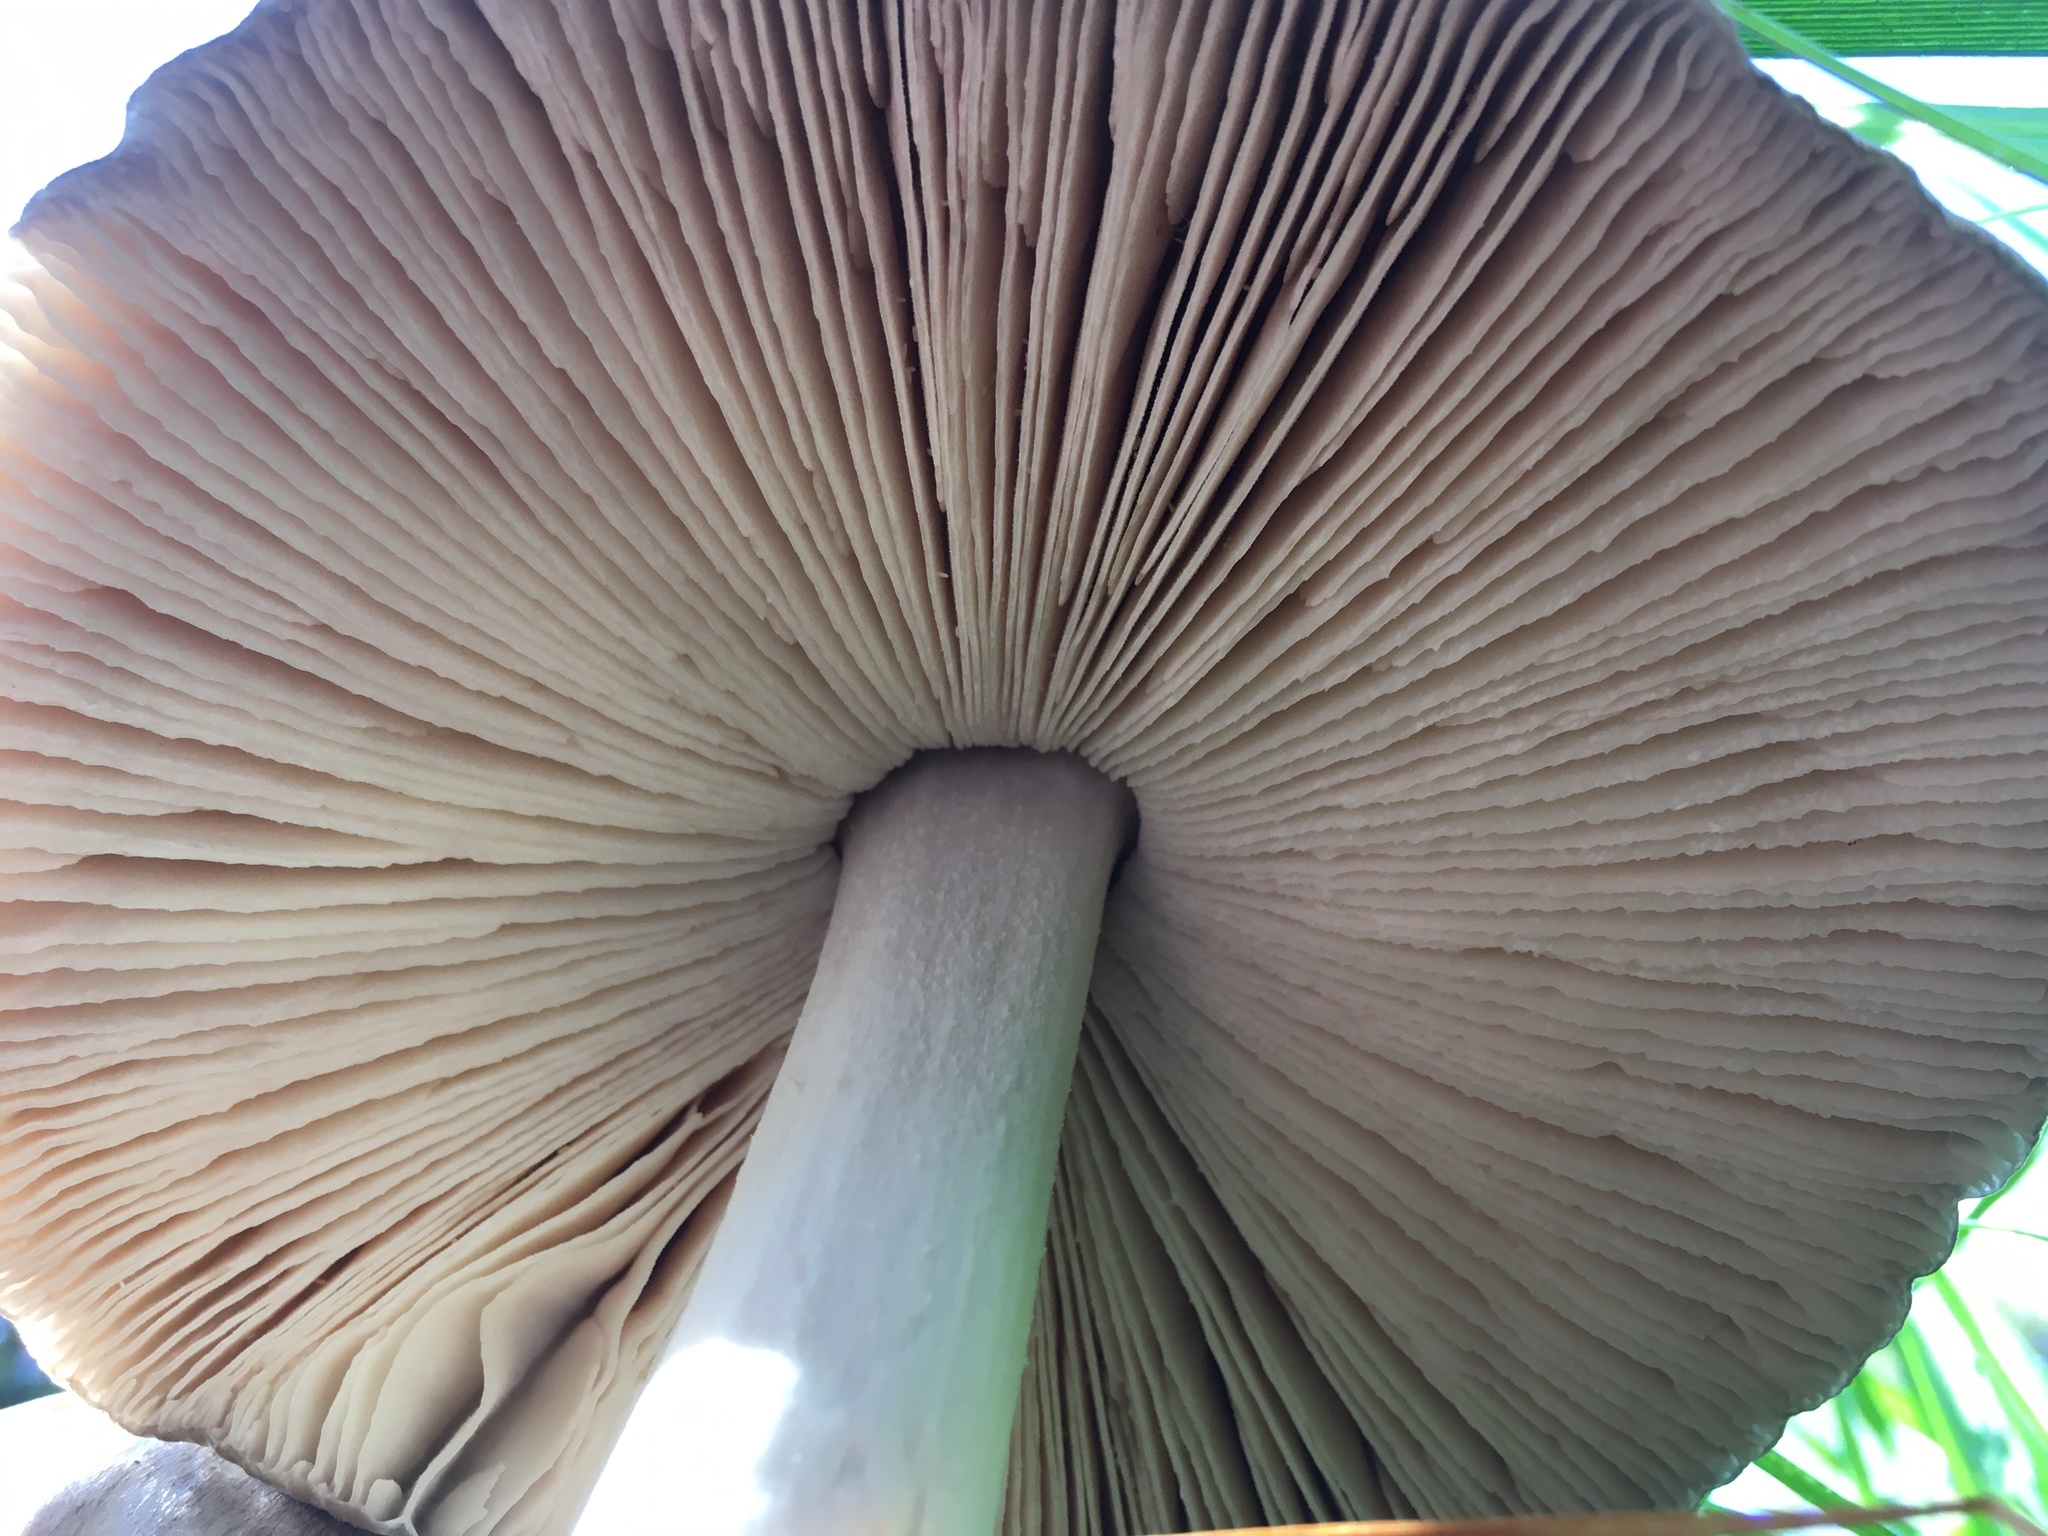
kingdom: Fungi
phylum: Basidiomycota
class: Agaricomycetes
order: Agaricales
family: Pluteaceae
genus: Volvopluteus
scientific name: Volvopluteus gloiocephalus
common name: Stubble rosegill
